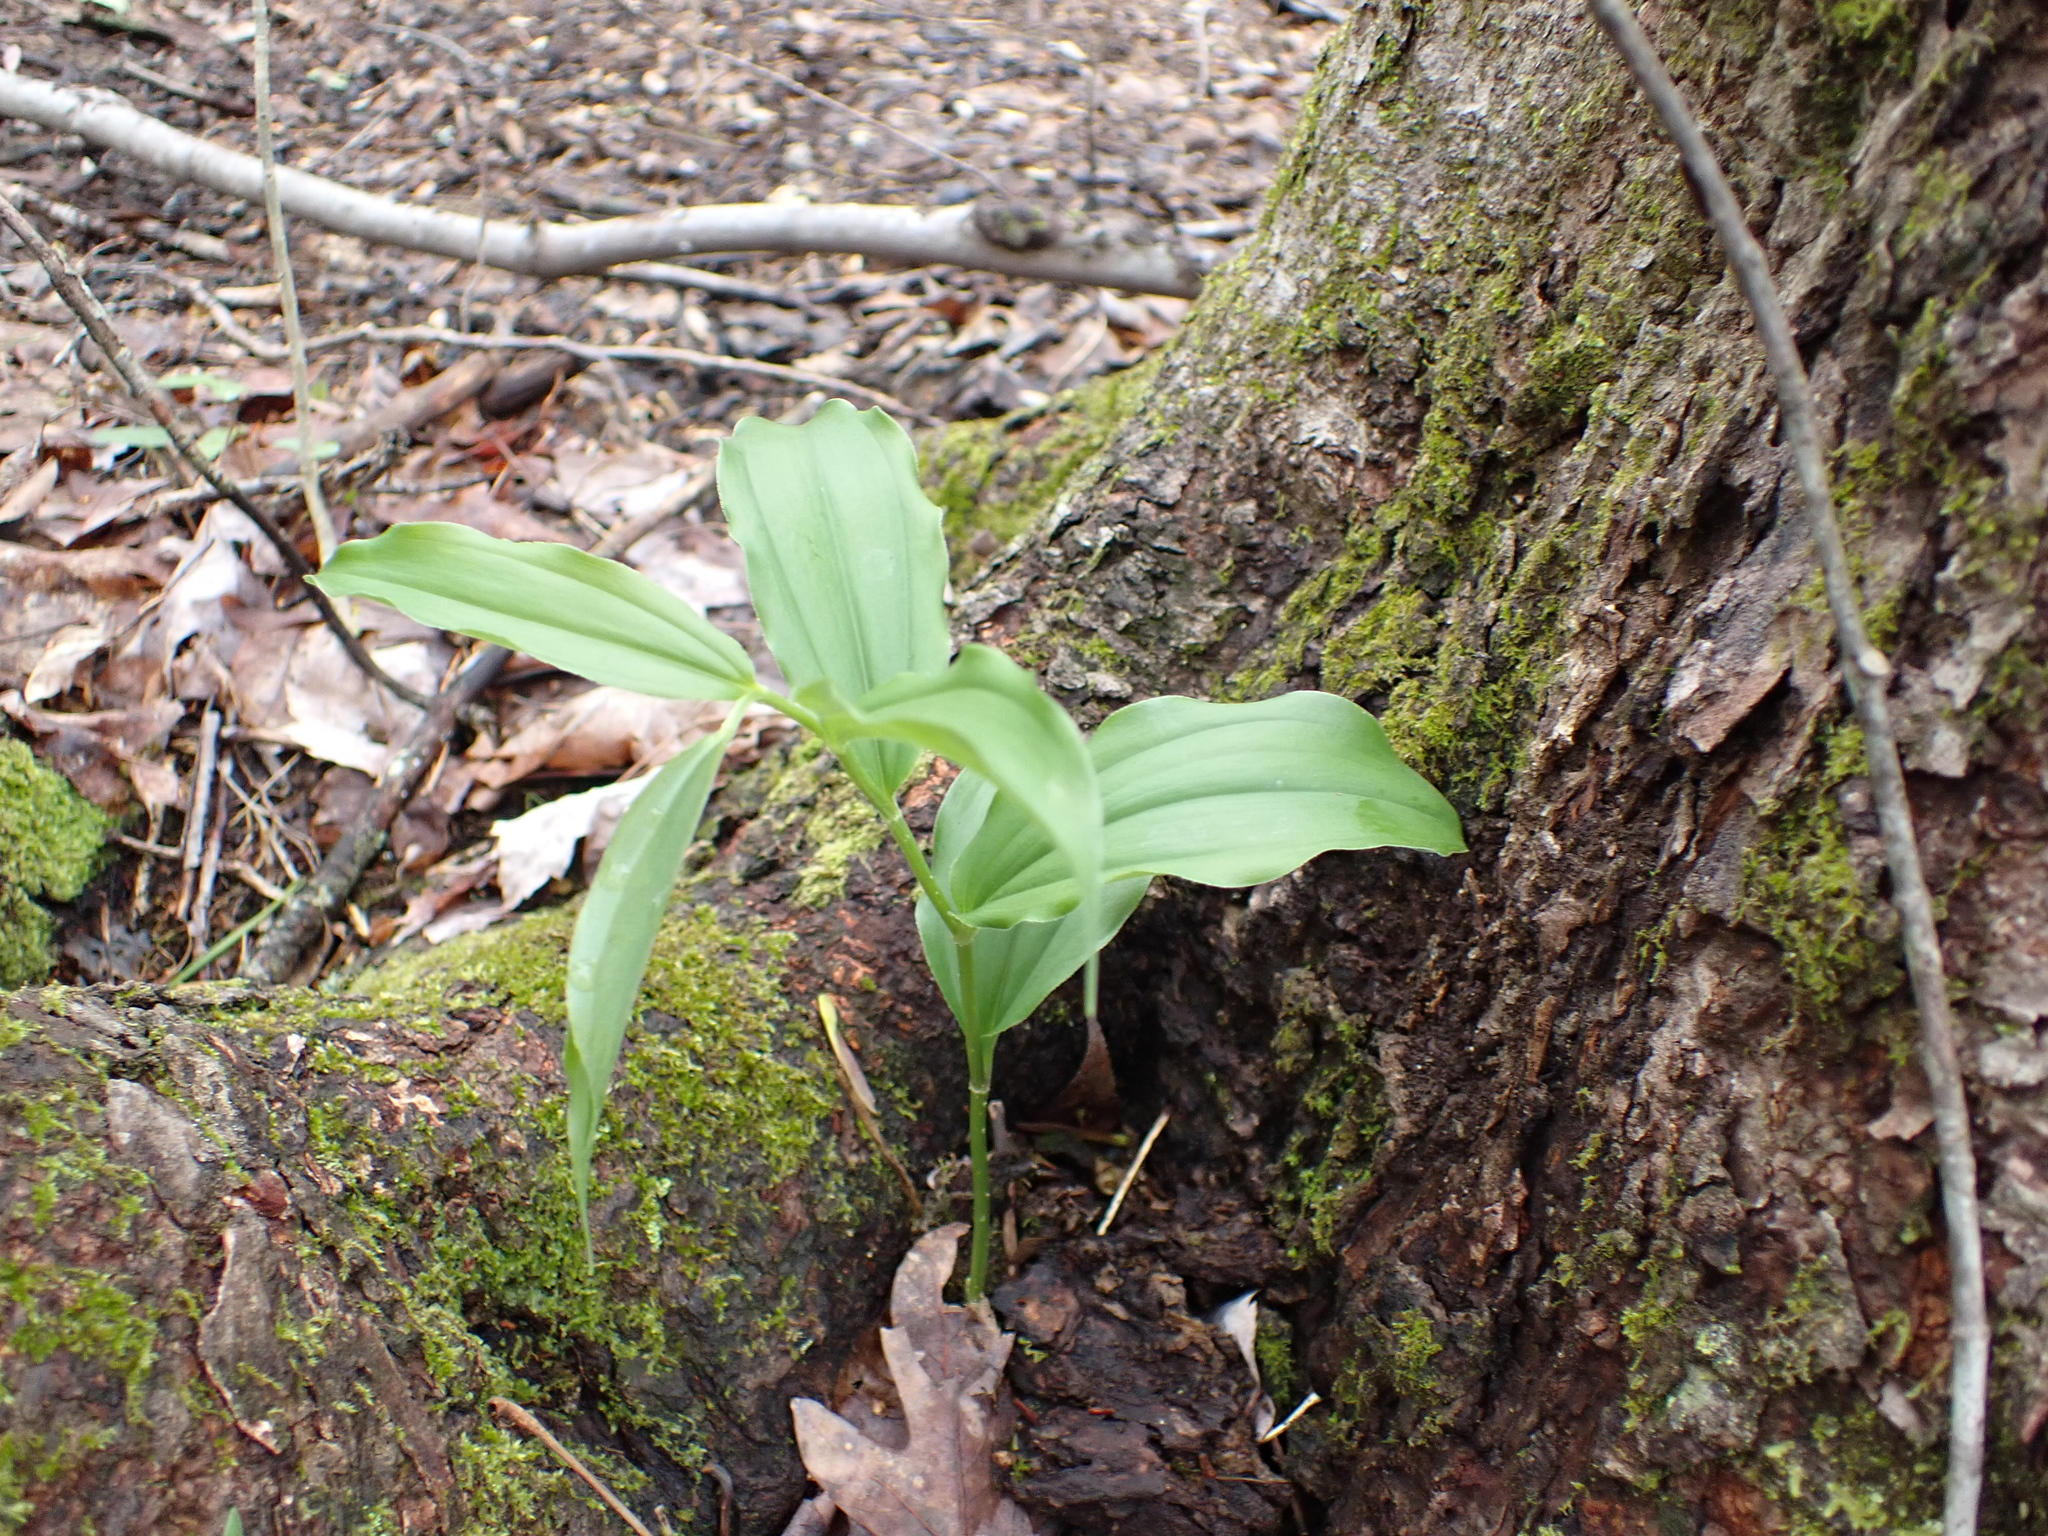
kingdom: Plantae
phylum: Tracheophyta
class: Liliopsida
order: Asparagales
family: Asparagaceae
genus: Maianthemum
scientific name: Maianthemum racemosum
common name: False spikenard
